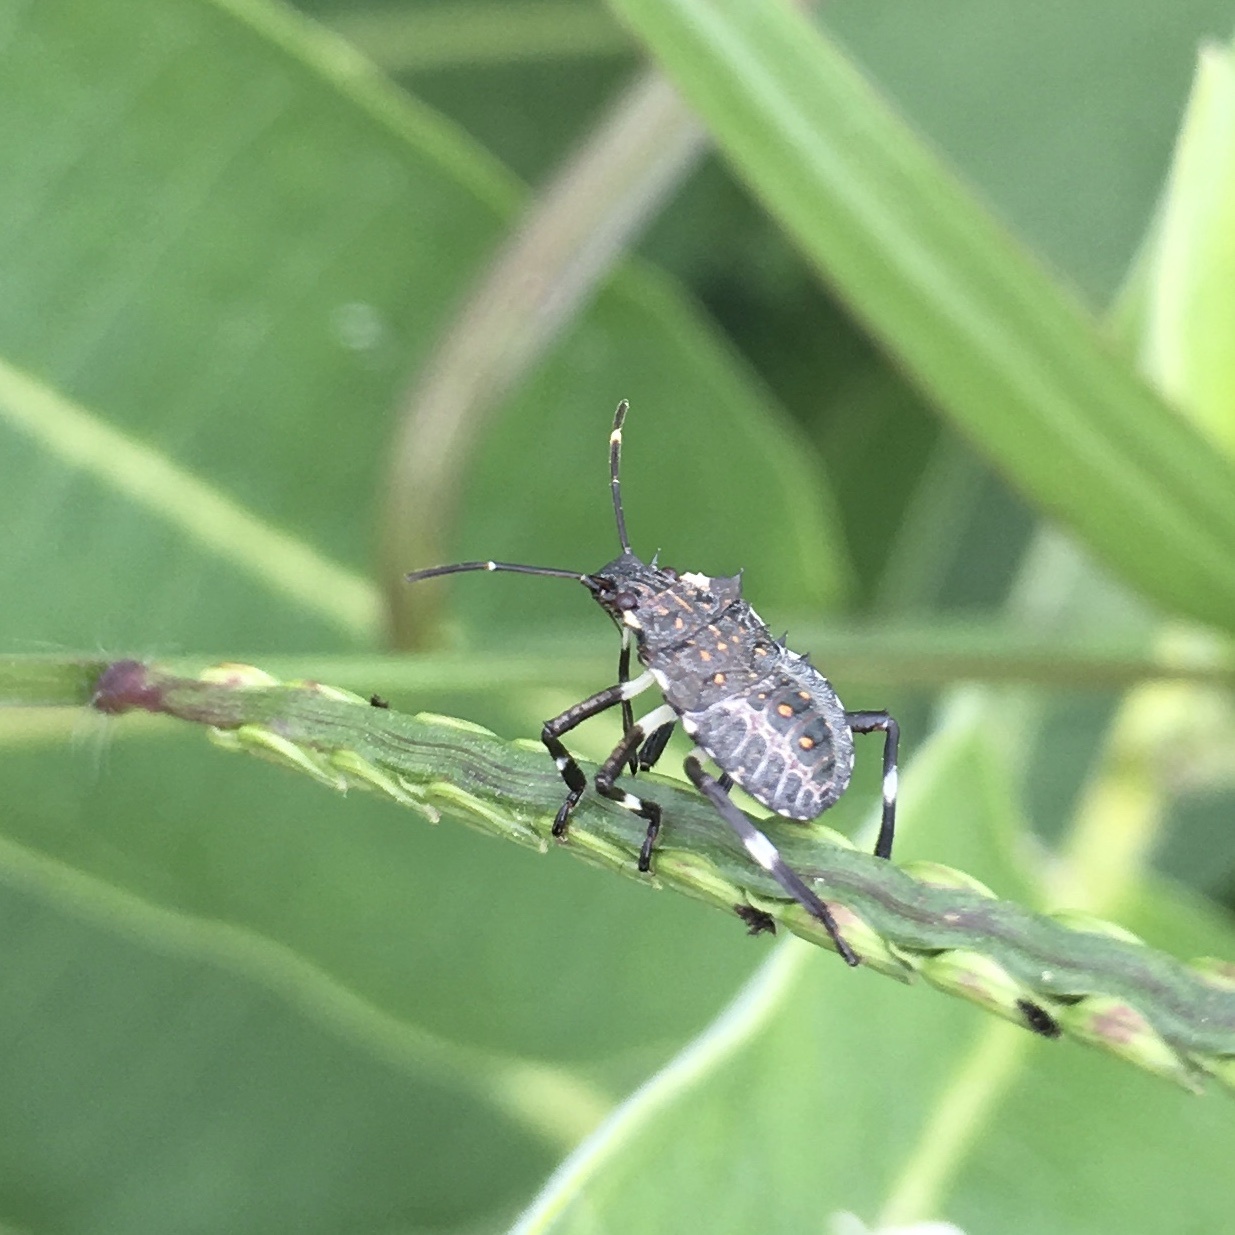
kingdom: Animalia
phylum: Arthropoda
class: Insecta
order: Hemiptera
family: Pentatomidae
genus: Halyomorpha
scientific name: Halyomorpha halys
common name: Brown marmorated stink bug
